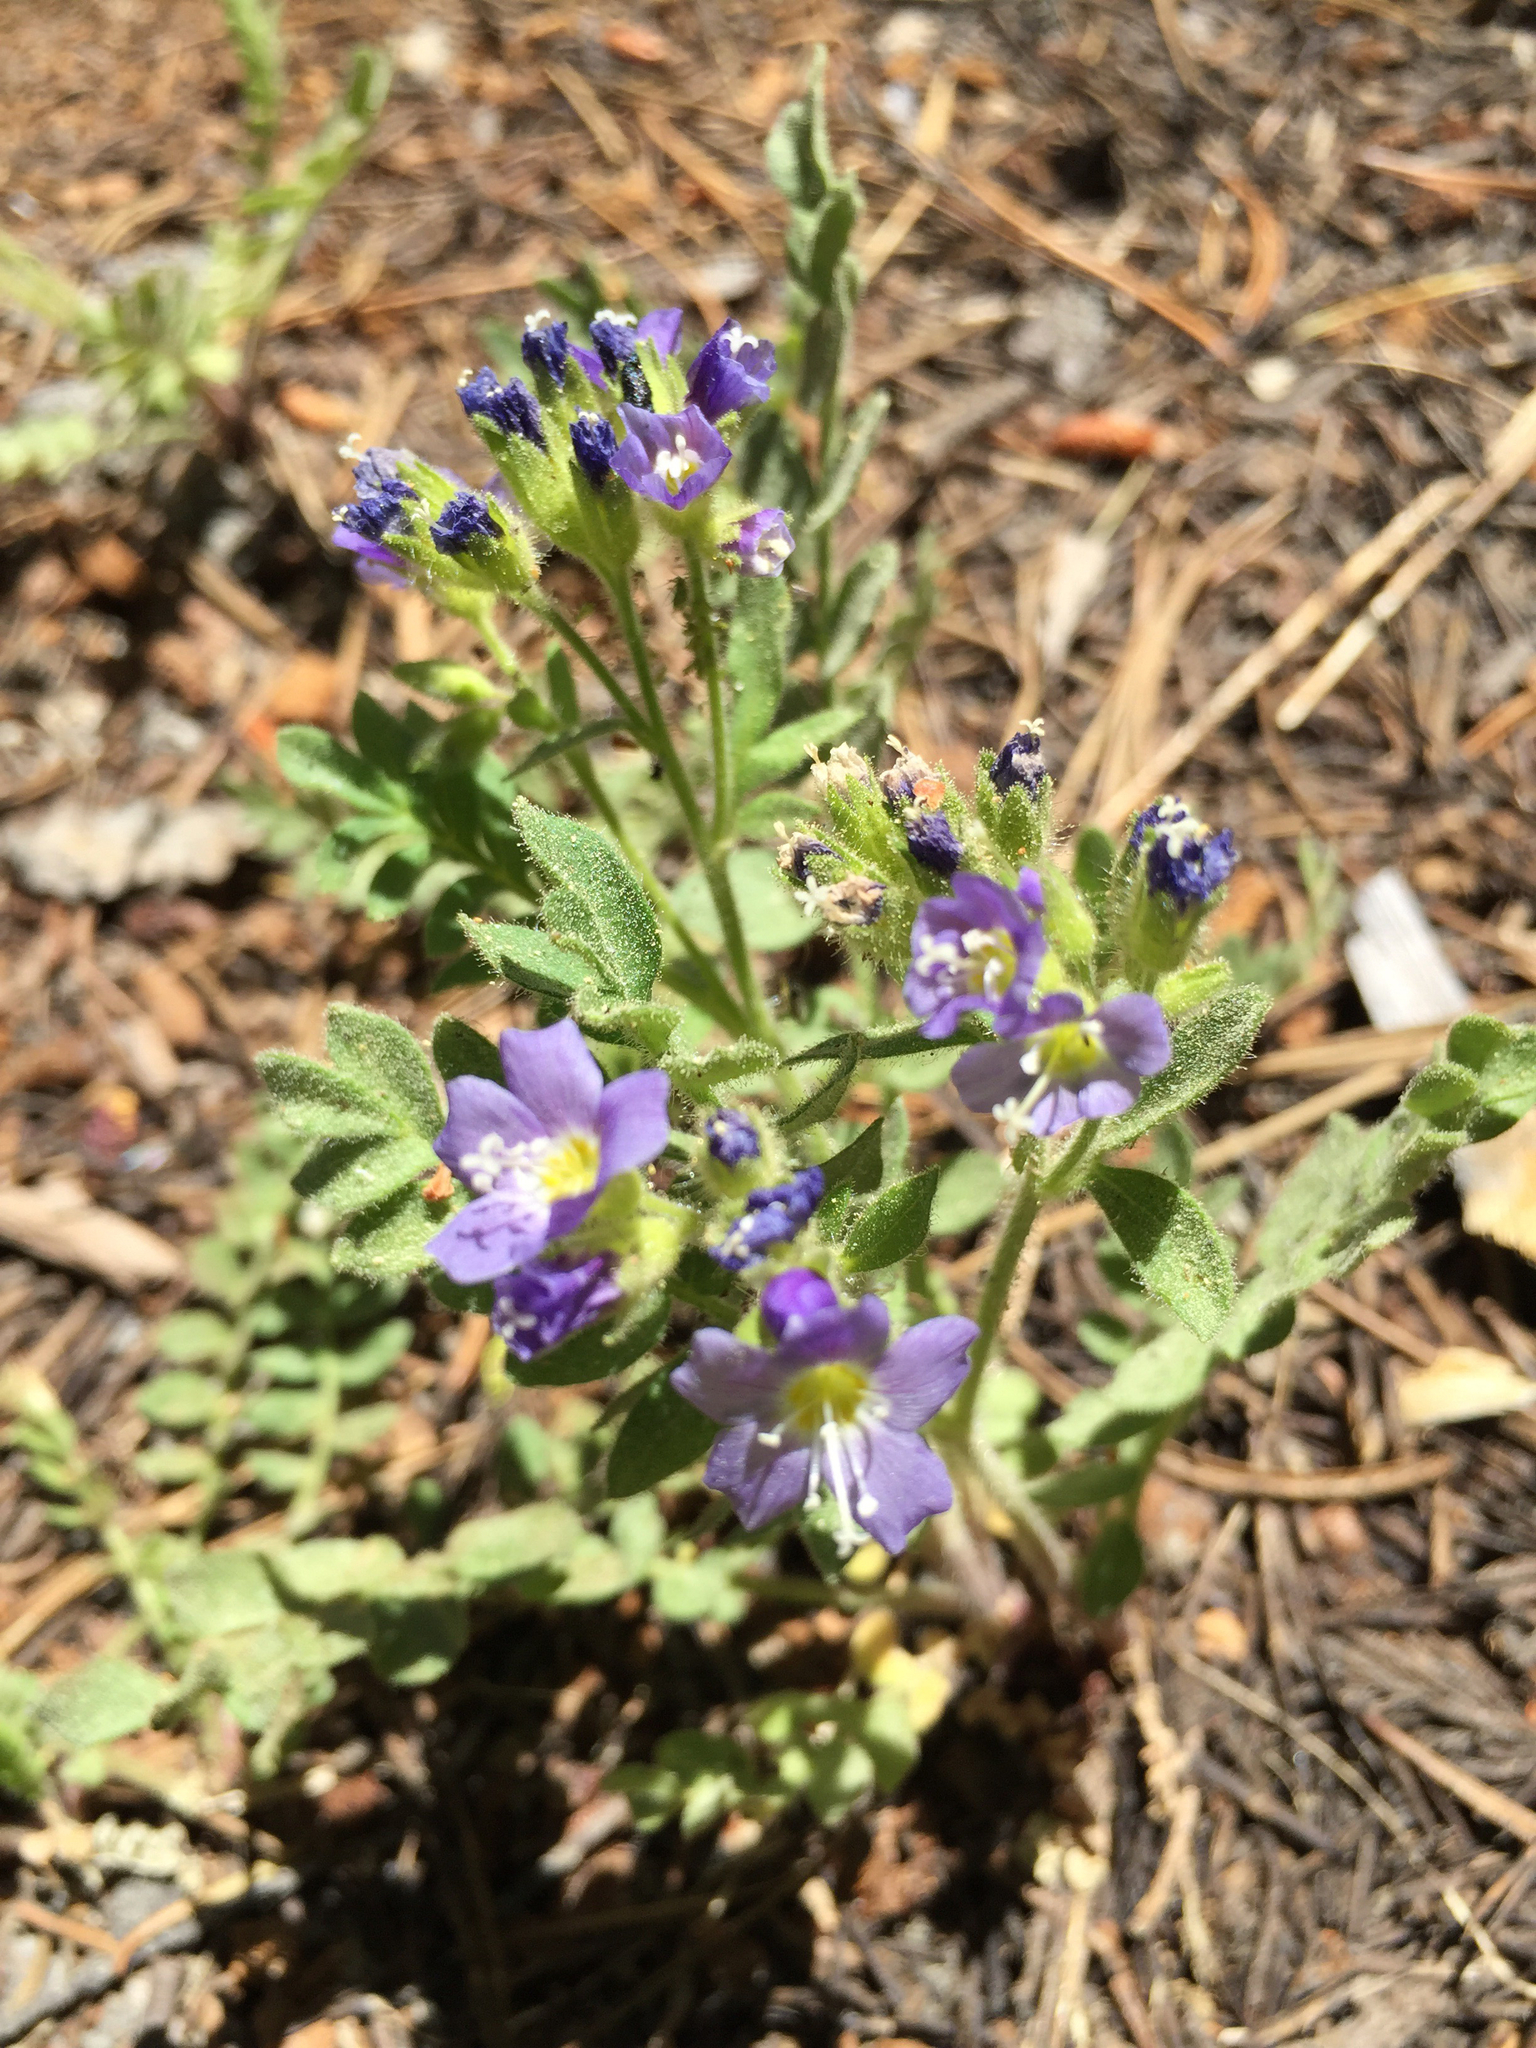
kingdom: Plantae
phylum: Tracheophyta
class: Magnoliopsida
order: Ericales
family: Polemoniaceae
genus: Polemonium
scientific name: Polemonium californicum
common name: California jacob's ladder
